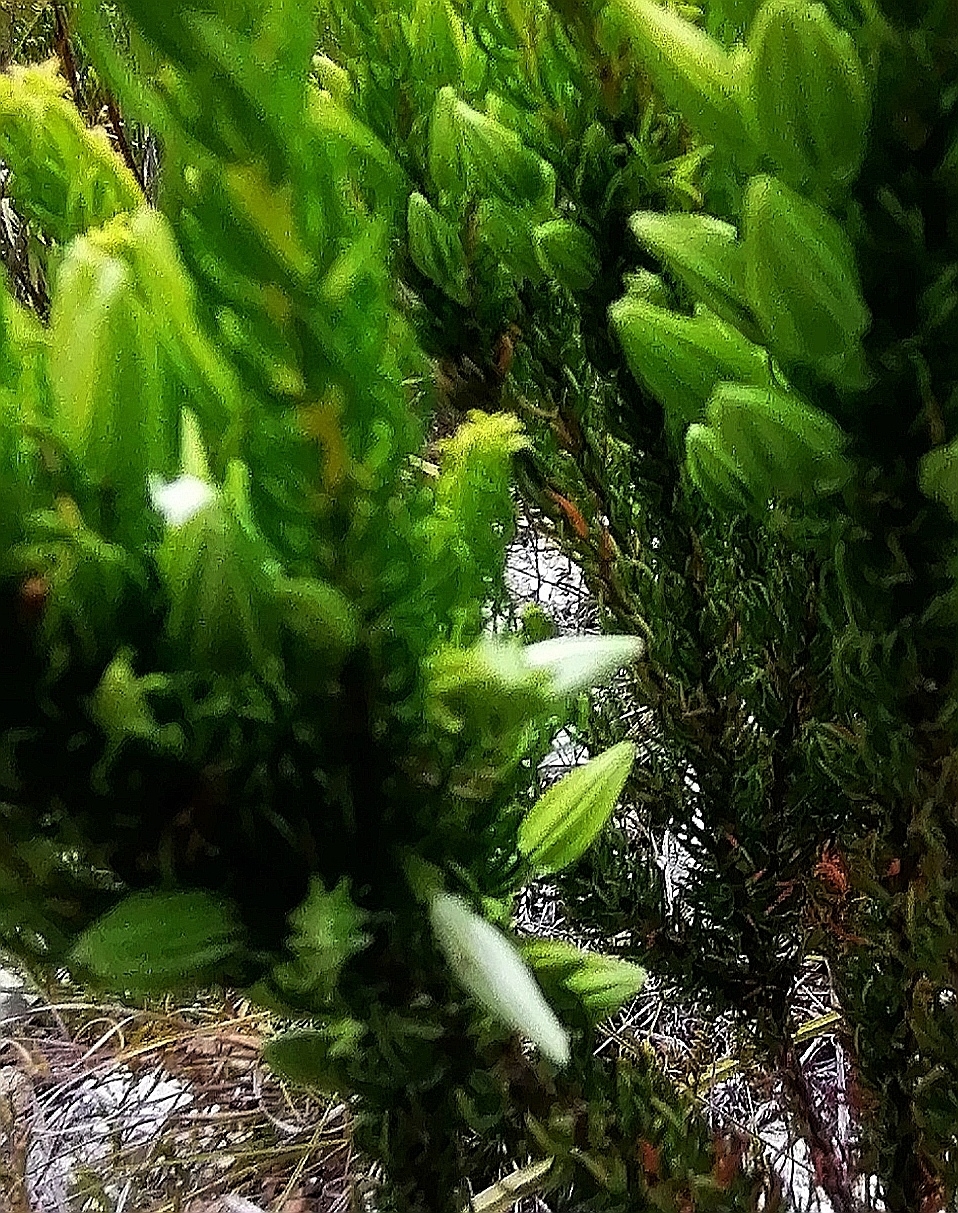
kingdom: Plantae
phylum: Tracheophyta
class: Magnoliopsida
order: Ericales
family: Ericaceae
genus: Erica
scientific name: Erica plukenetii
